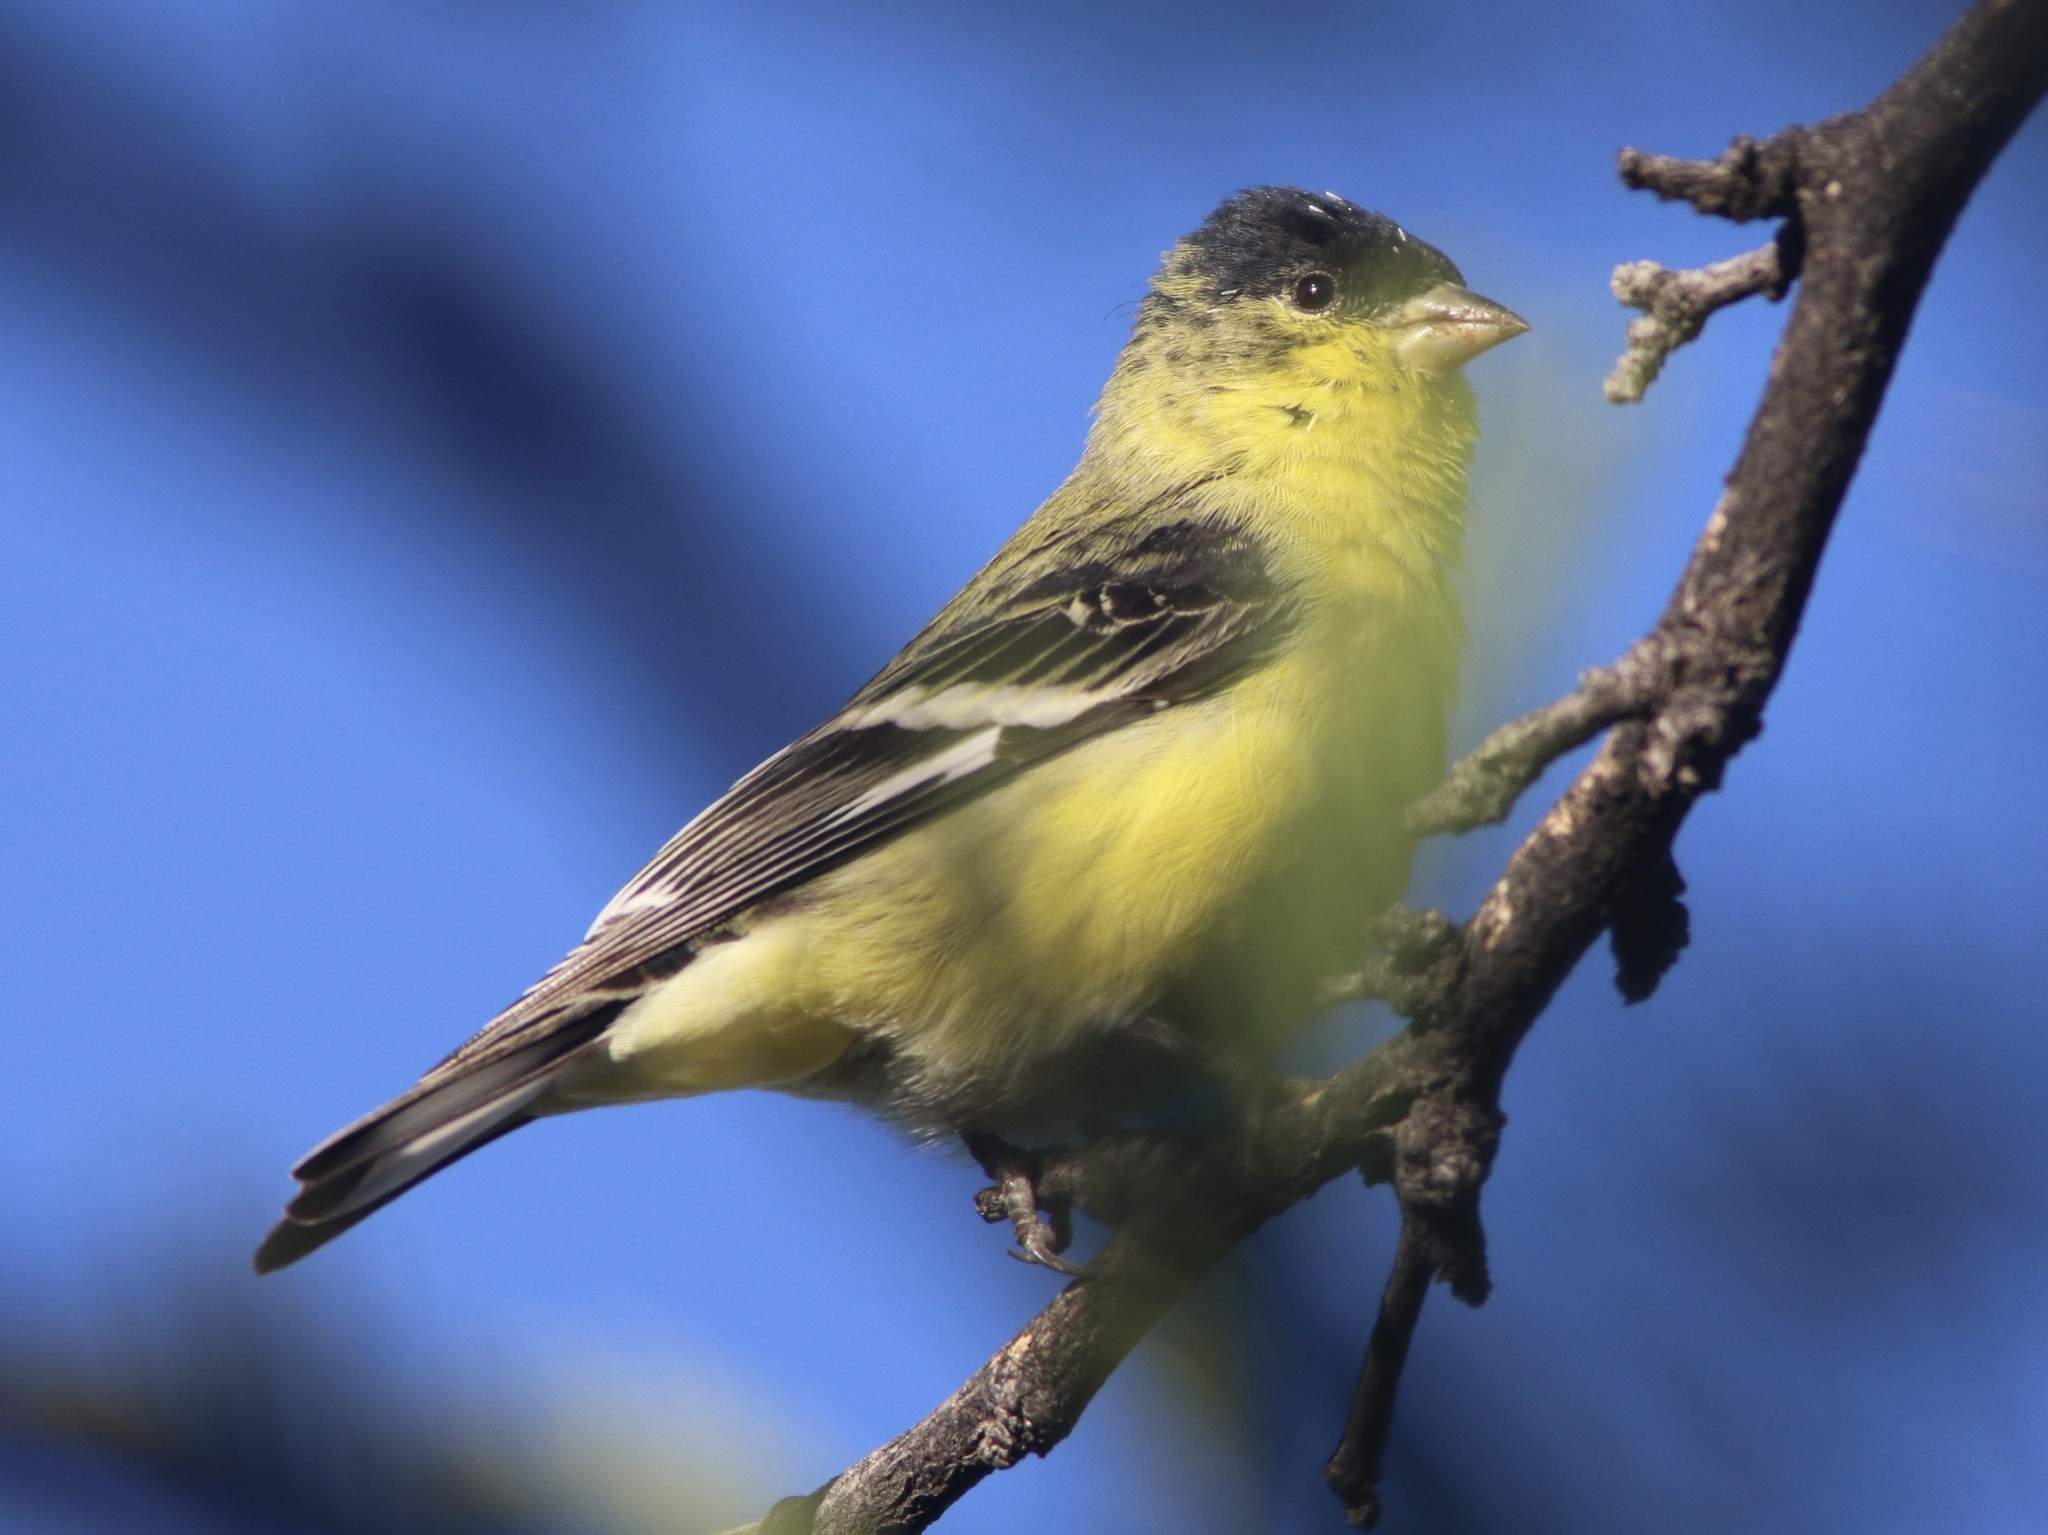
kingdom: Animalia
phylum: Chordata
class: Aves
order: Passeriformes
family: Fringillidae
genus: Spinus
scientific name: Spinus psaltria
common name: Lesser goldfinch
